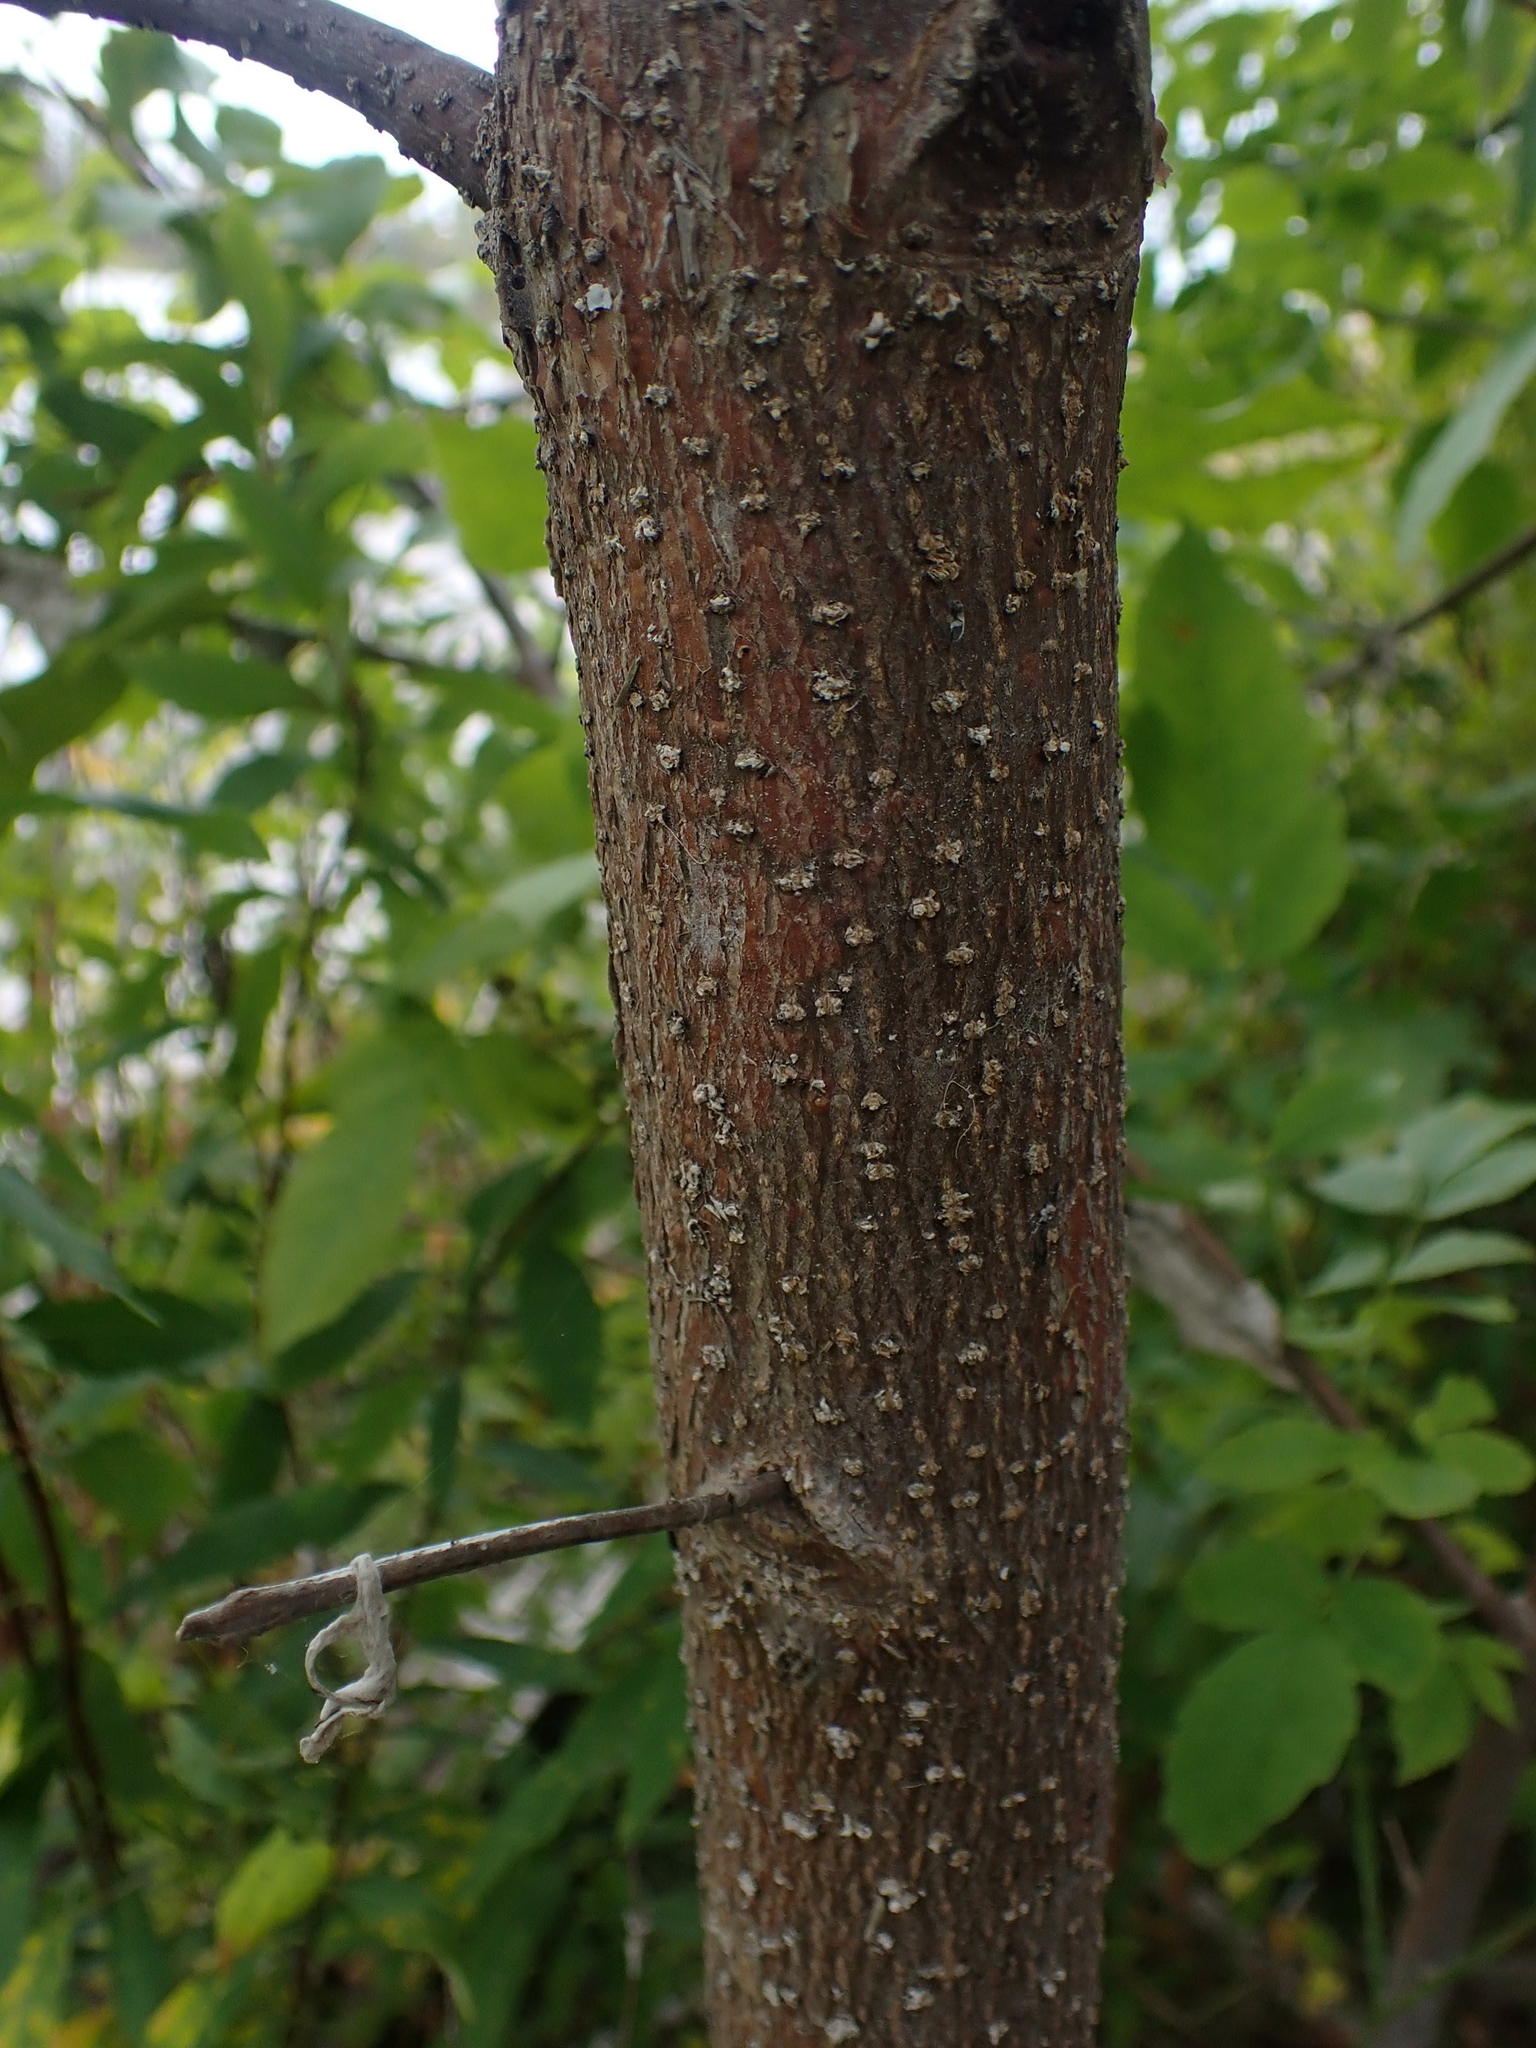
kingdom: Plantae
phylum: Tracheophyta
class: Magnoliopsida
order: Lamiales
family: Oleaceae
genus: Fraxinus
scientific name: Fraxinus pennsylvanica
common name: Green ash
